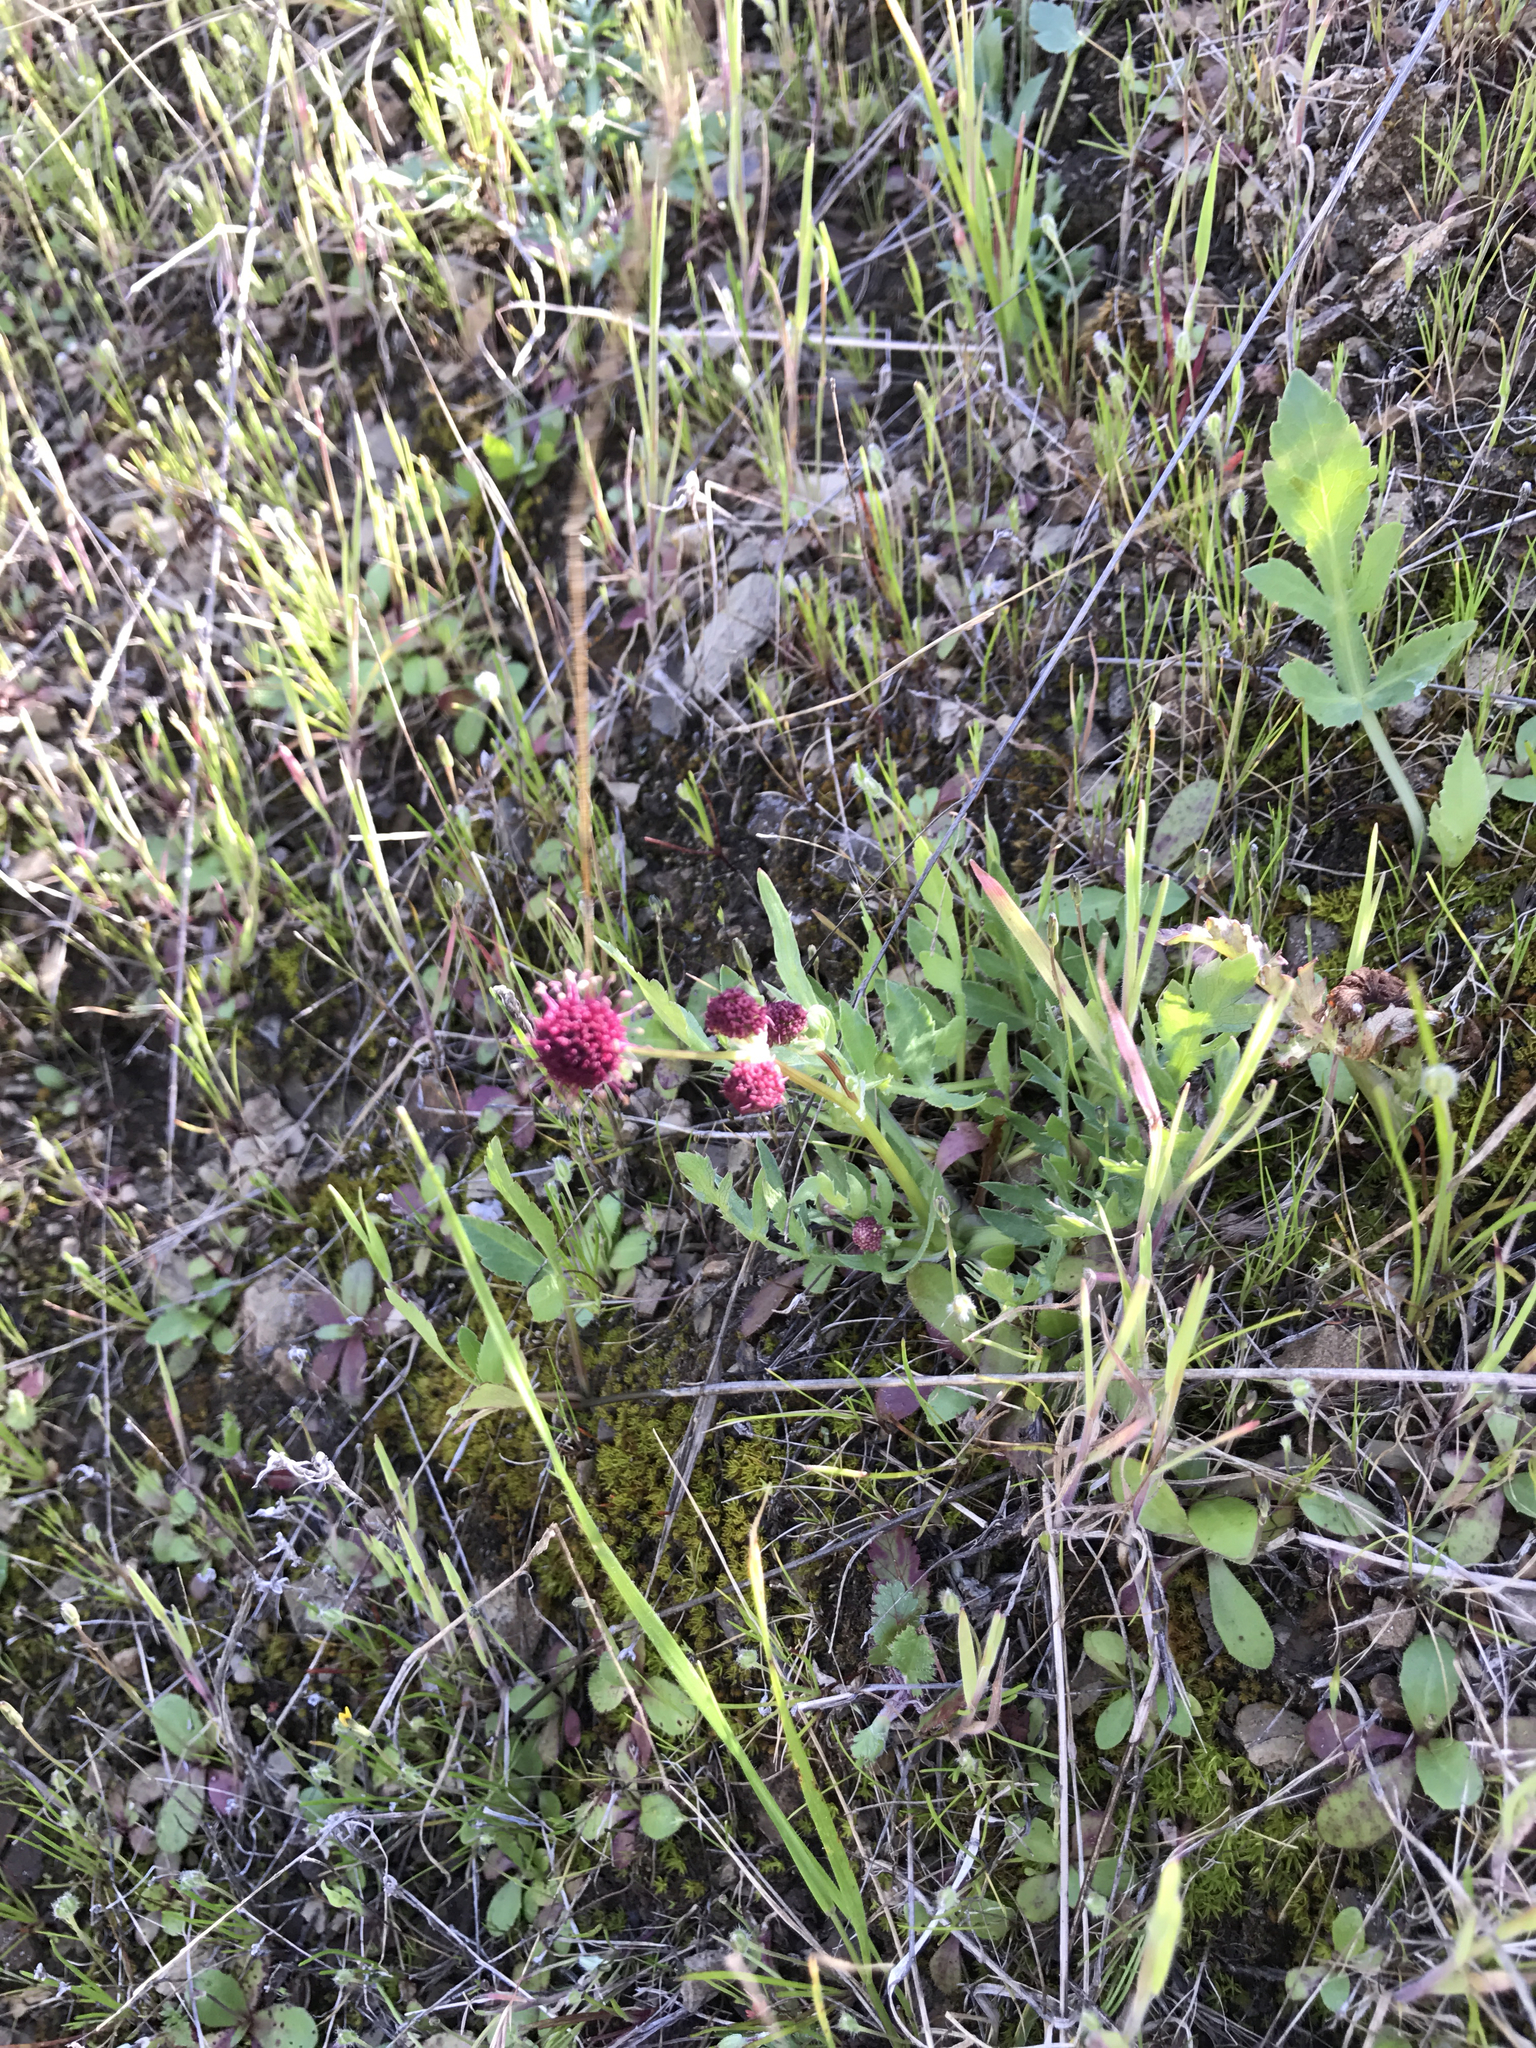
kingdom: Plantae
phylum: Tracheophyta
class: Magnoliopsida
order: Apiales
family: Apiaceae
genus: Sanicula
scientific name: Sanicula bipinnatifida
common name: Shoe-buttons
